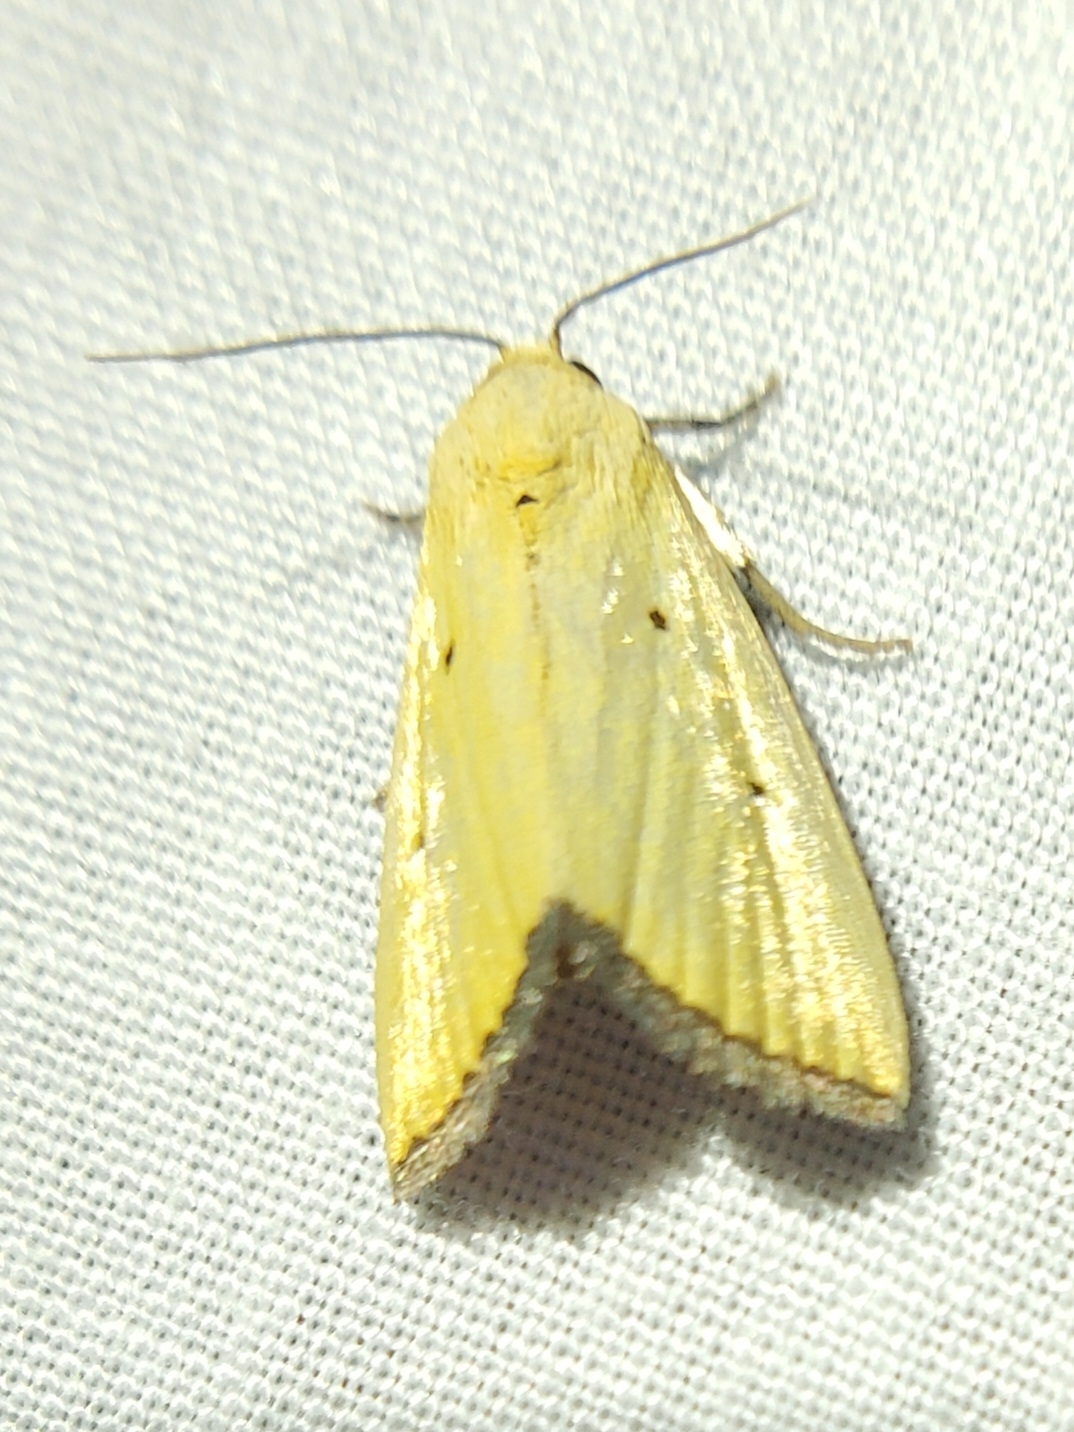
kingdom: Animalia
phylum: Arthropoda
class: Insecta
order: Lepidoptera
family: Noctuidae
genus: Marimatha
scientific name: Marimatha nigrofimbria
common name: Black-bordered lemon moth
